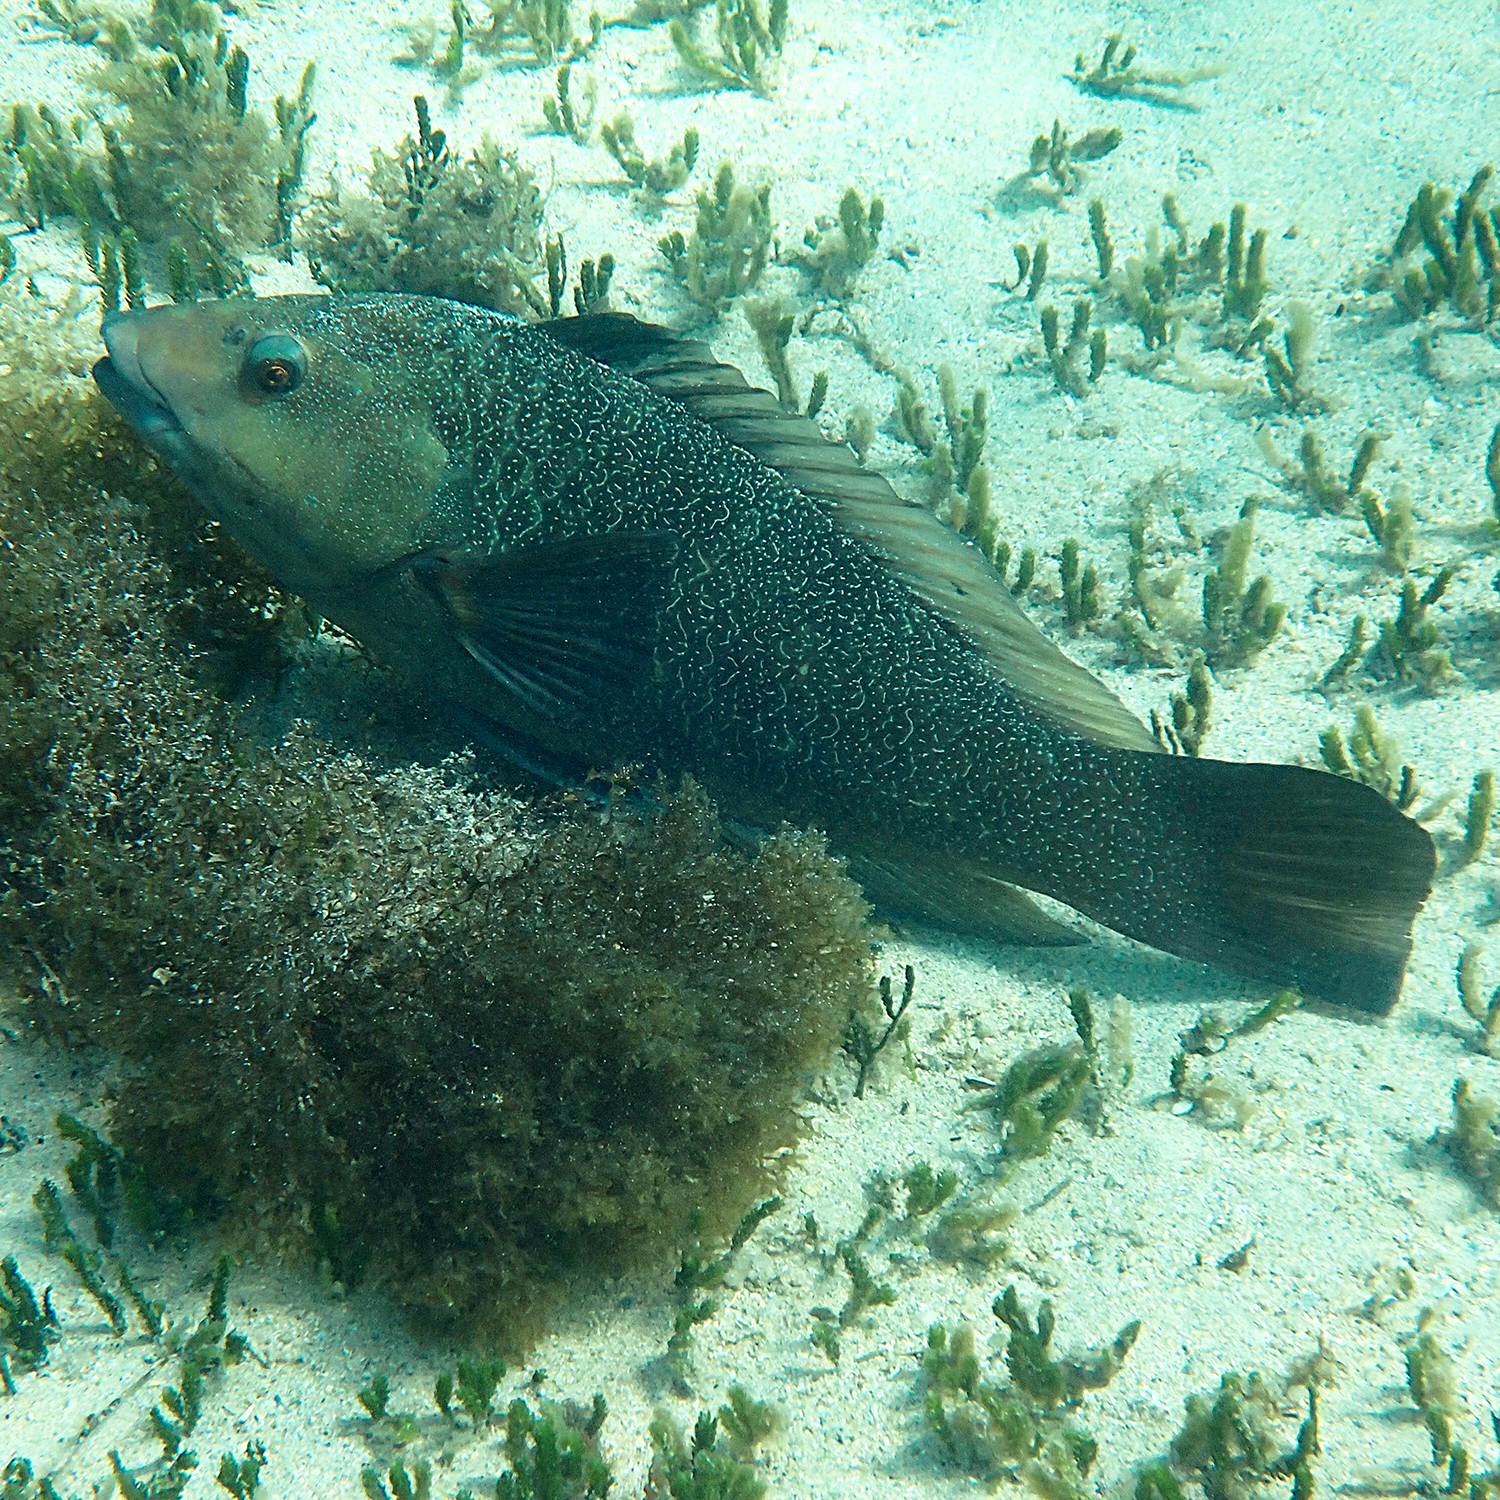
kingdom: Animalia
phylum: Chordata
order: Perciformes
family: Labridae
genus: Notolabrus
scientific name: Notolabrus inscriptus
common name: Green wrasse
